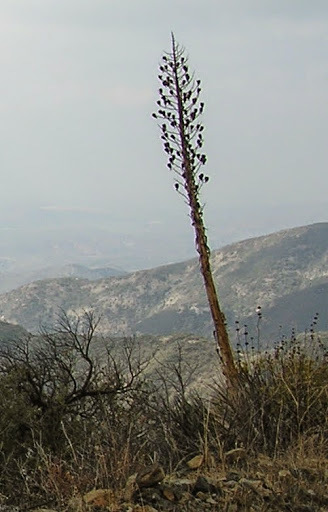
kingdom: Plantae
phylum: Tracheophyta
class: Liliopsida
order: Asparagales
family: Asparagaceae
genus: Hesperoyucca
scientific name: Hesperoyucca whipplei
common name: Our lord's-candle
